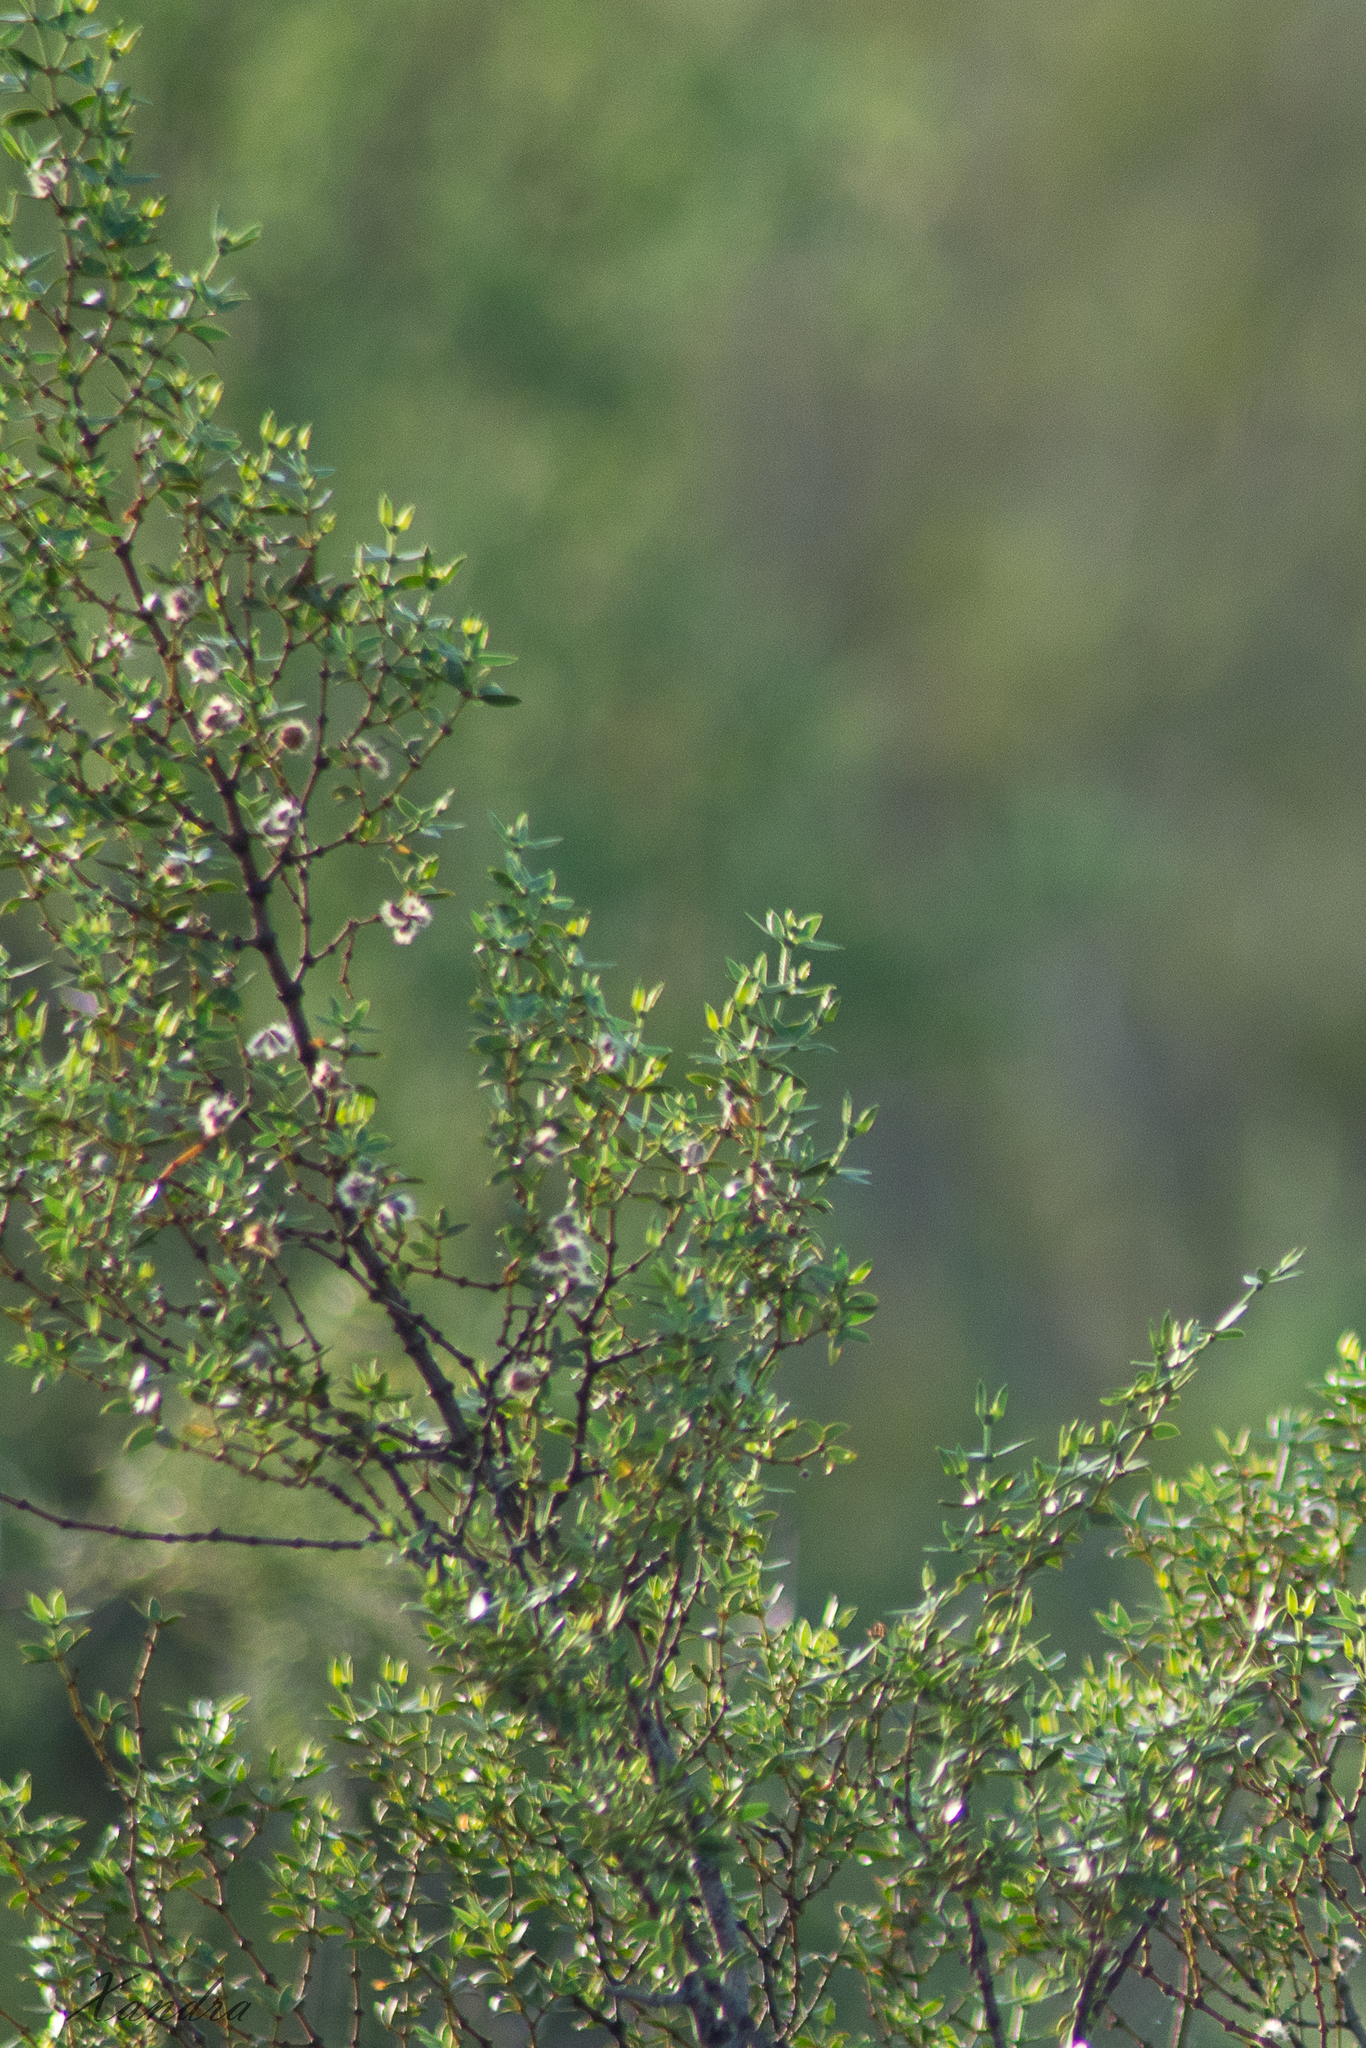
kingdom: Plantae
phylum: Tracheophyta
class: Magnoliopsida
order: Zygophyllales
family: Zygophyllaceae
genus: Larrea
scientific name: Larrea divaricata
